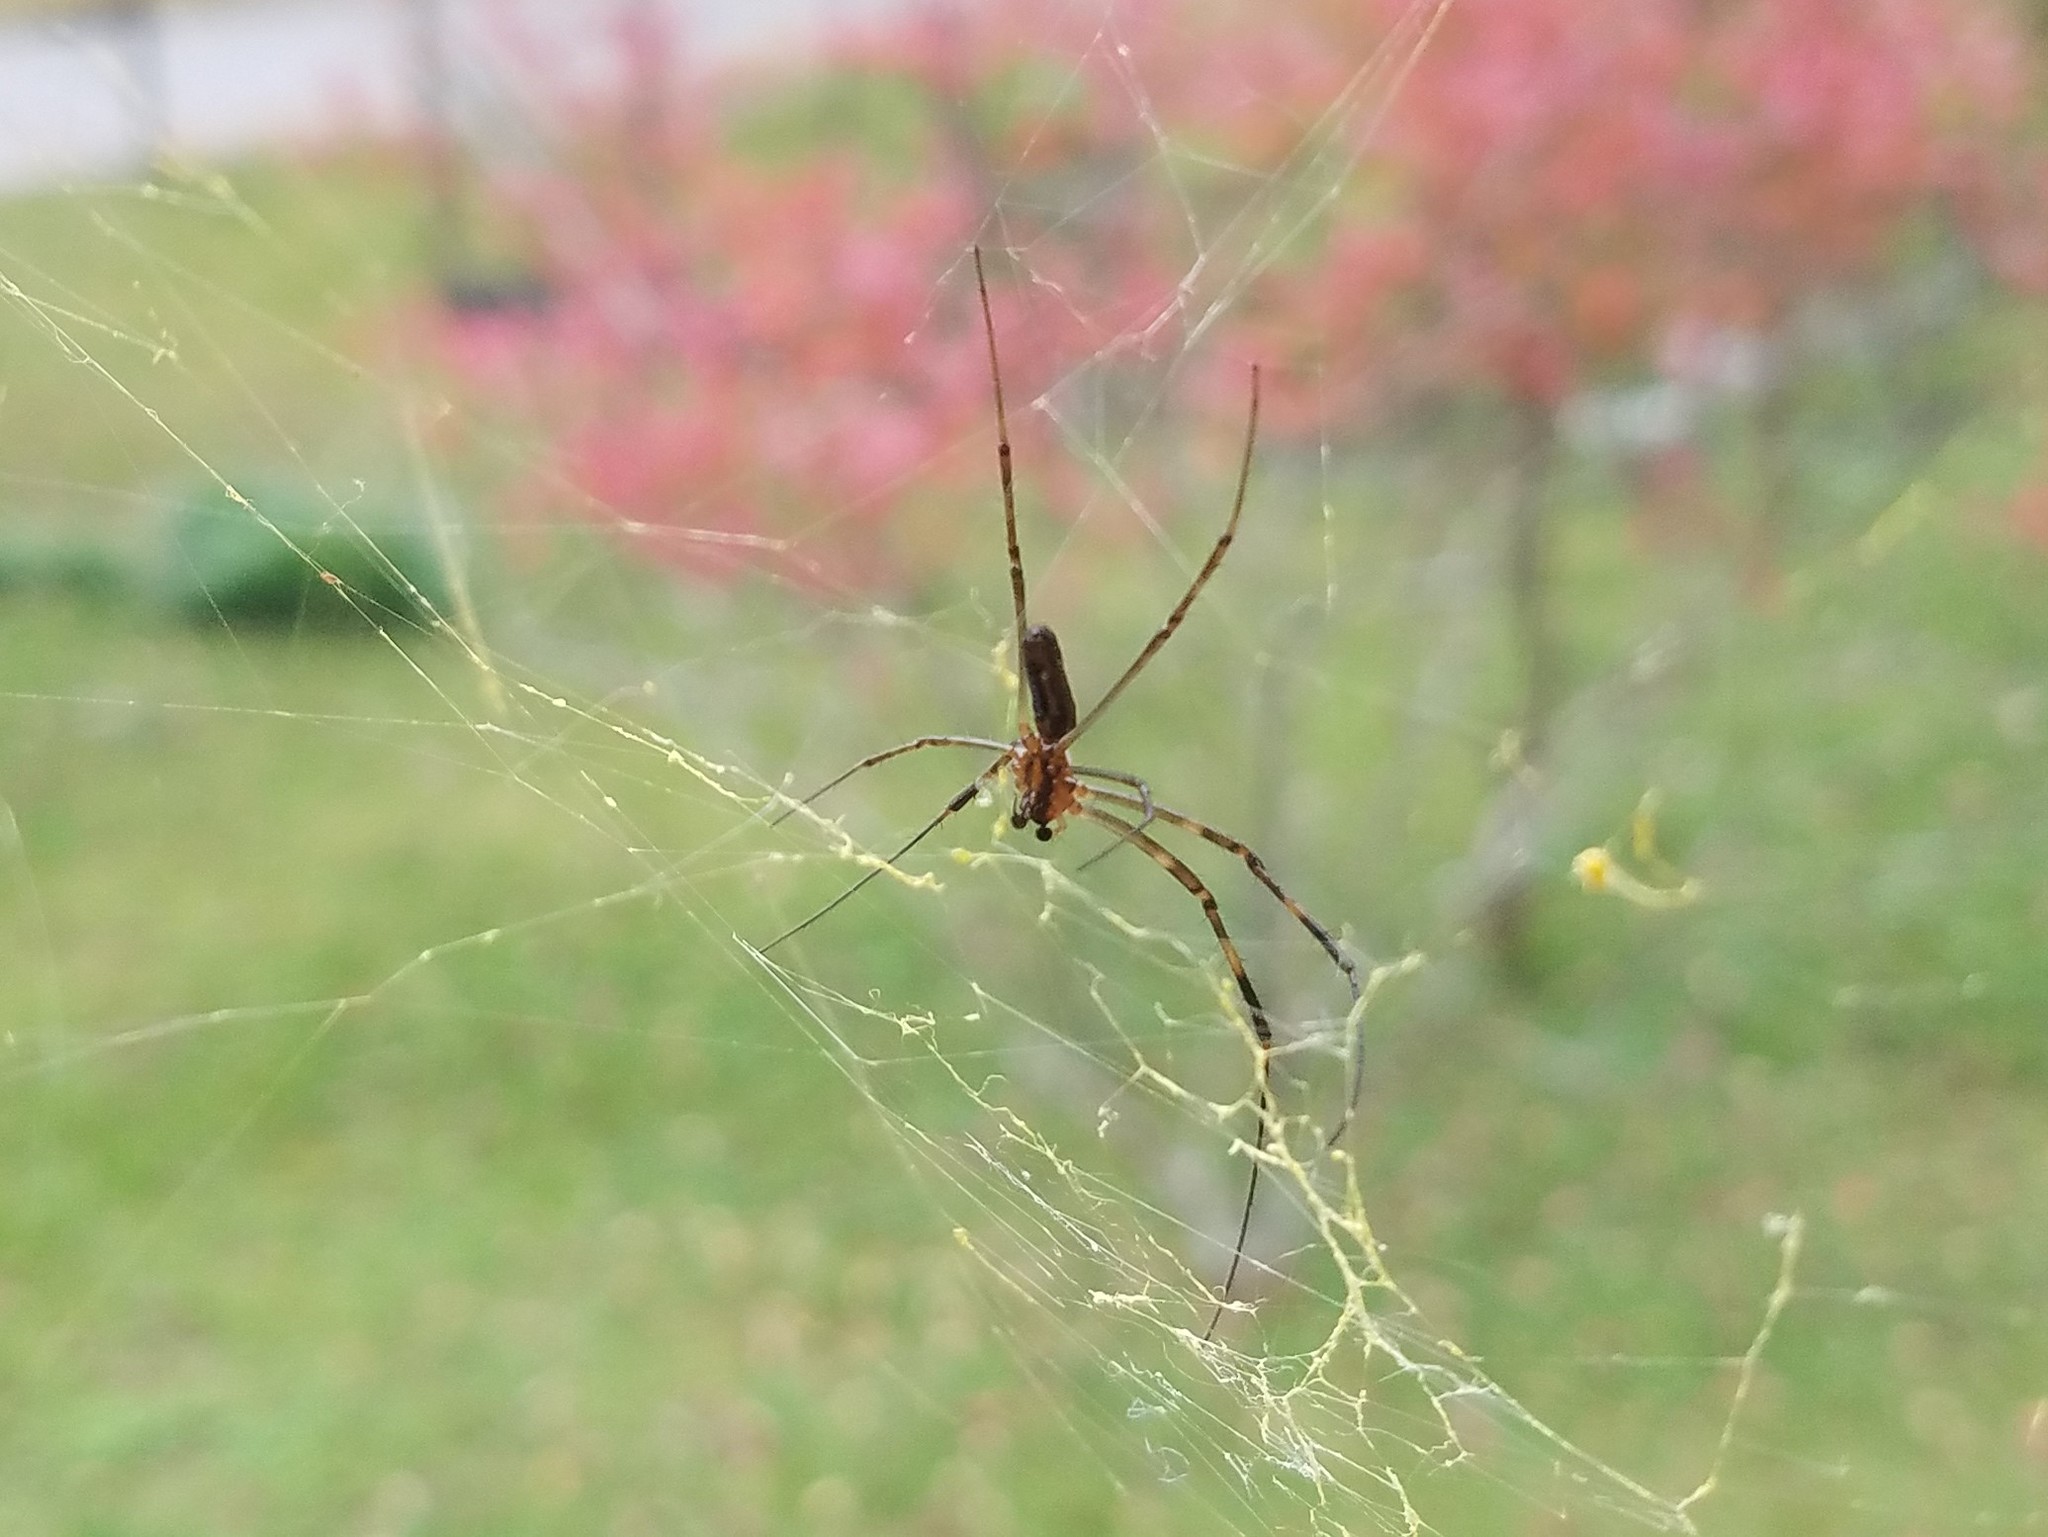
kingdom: Animalia
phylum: Arthropoda
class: Arachnida
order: Araneae
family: Araneidae
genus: Trichonephila
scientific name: Trichonephila clavata
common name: Jorō spider
